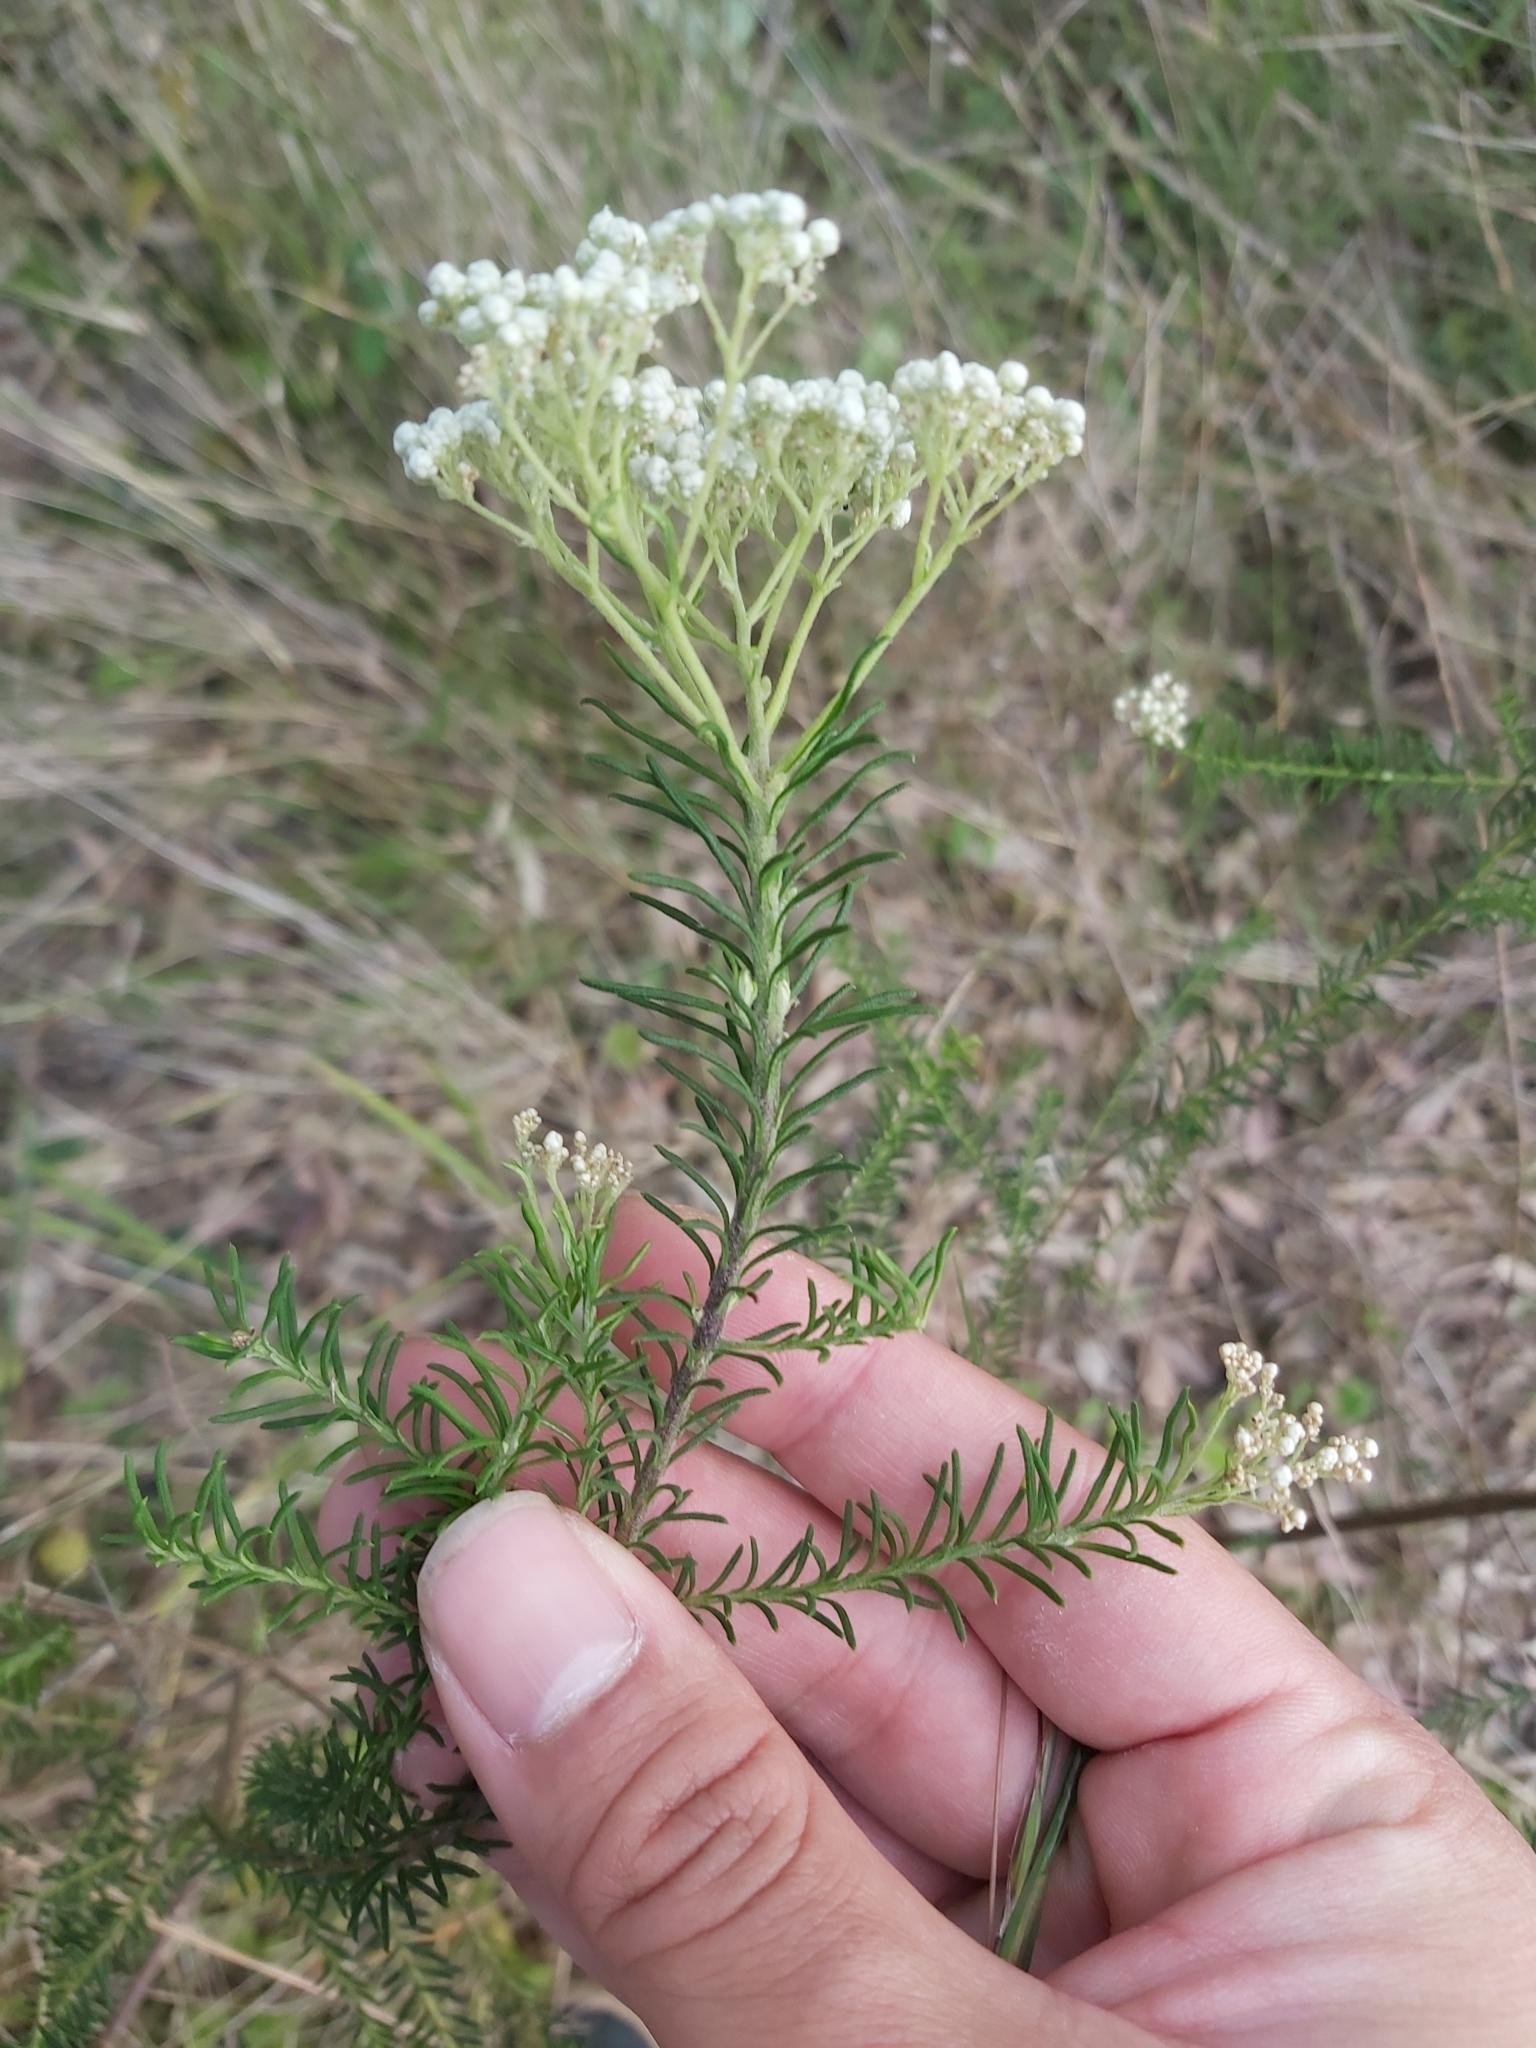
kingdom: Plantae
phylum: Tracheophyta
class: Magnoliopsida
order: Asterales
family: Asteraceae
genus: Ozothamnus
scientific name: Ozothamnus diosmifolius
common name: White-dogwood
